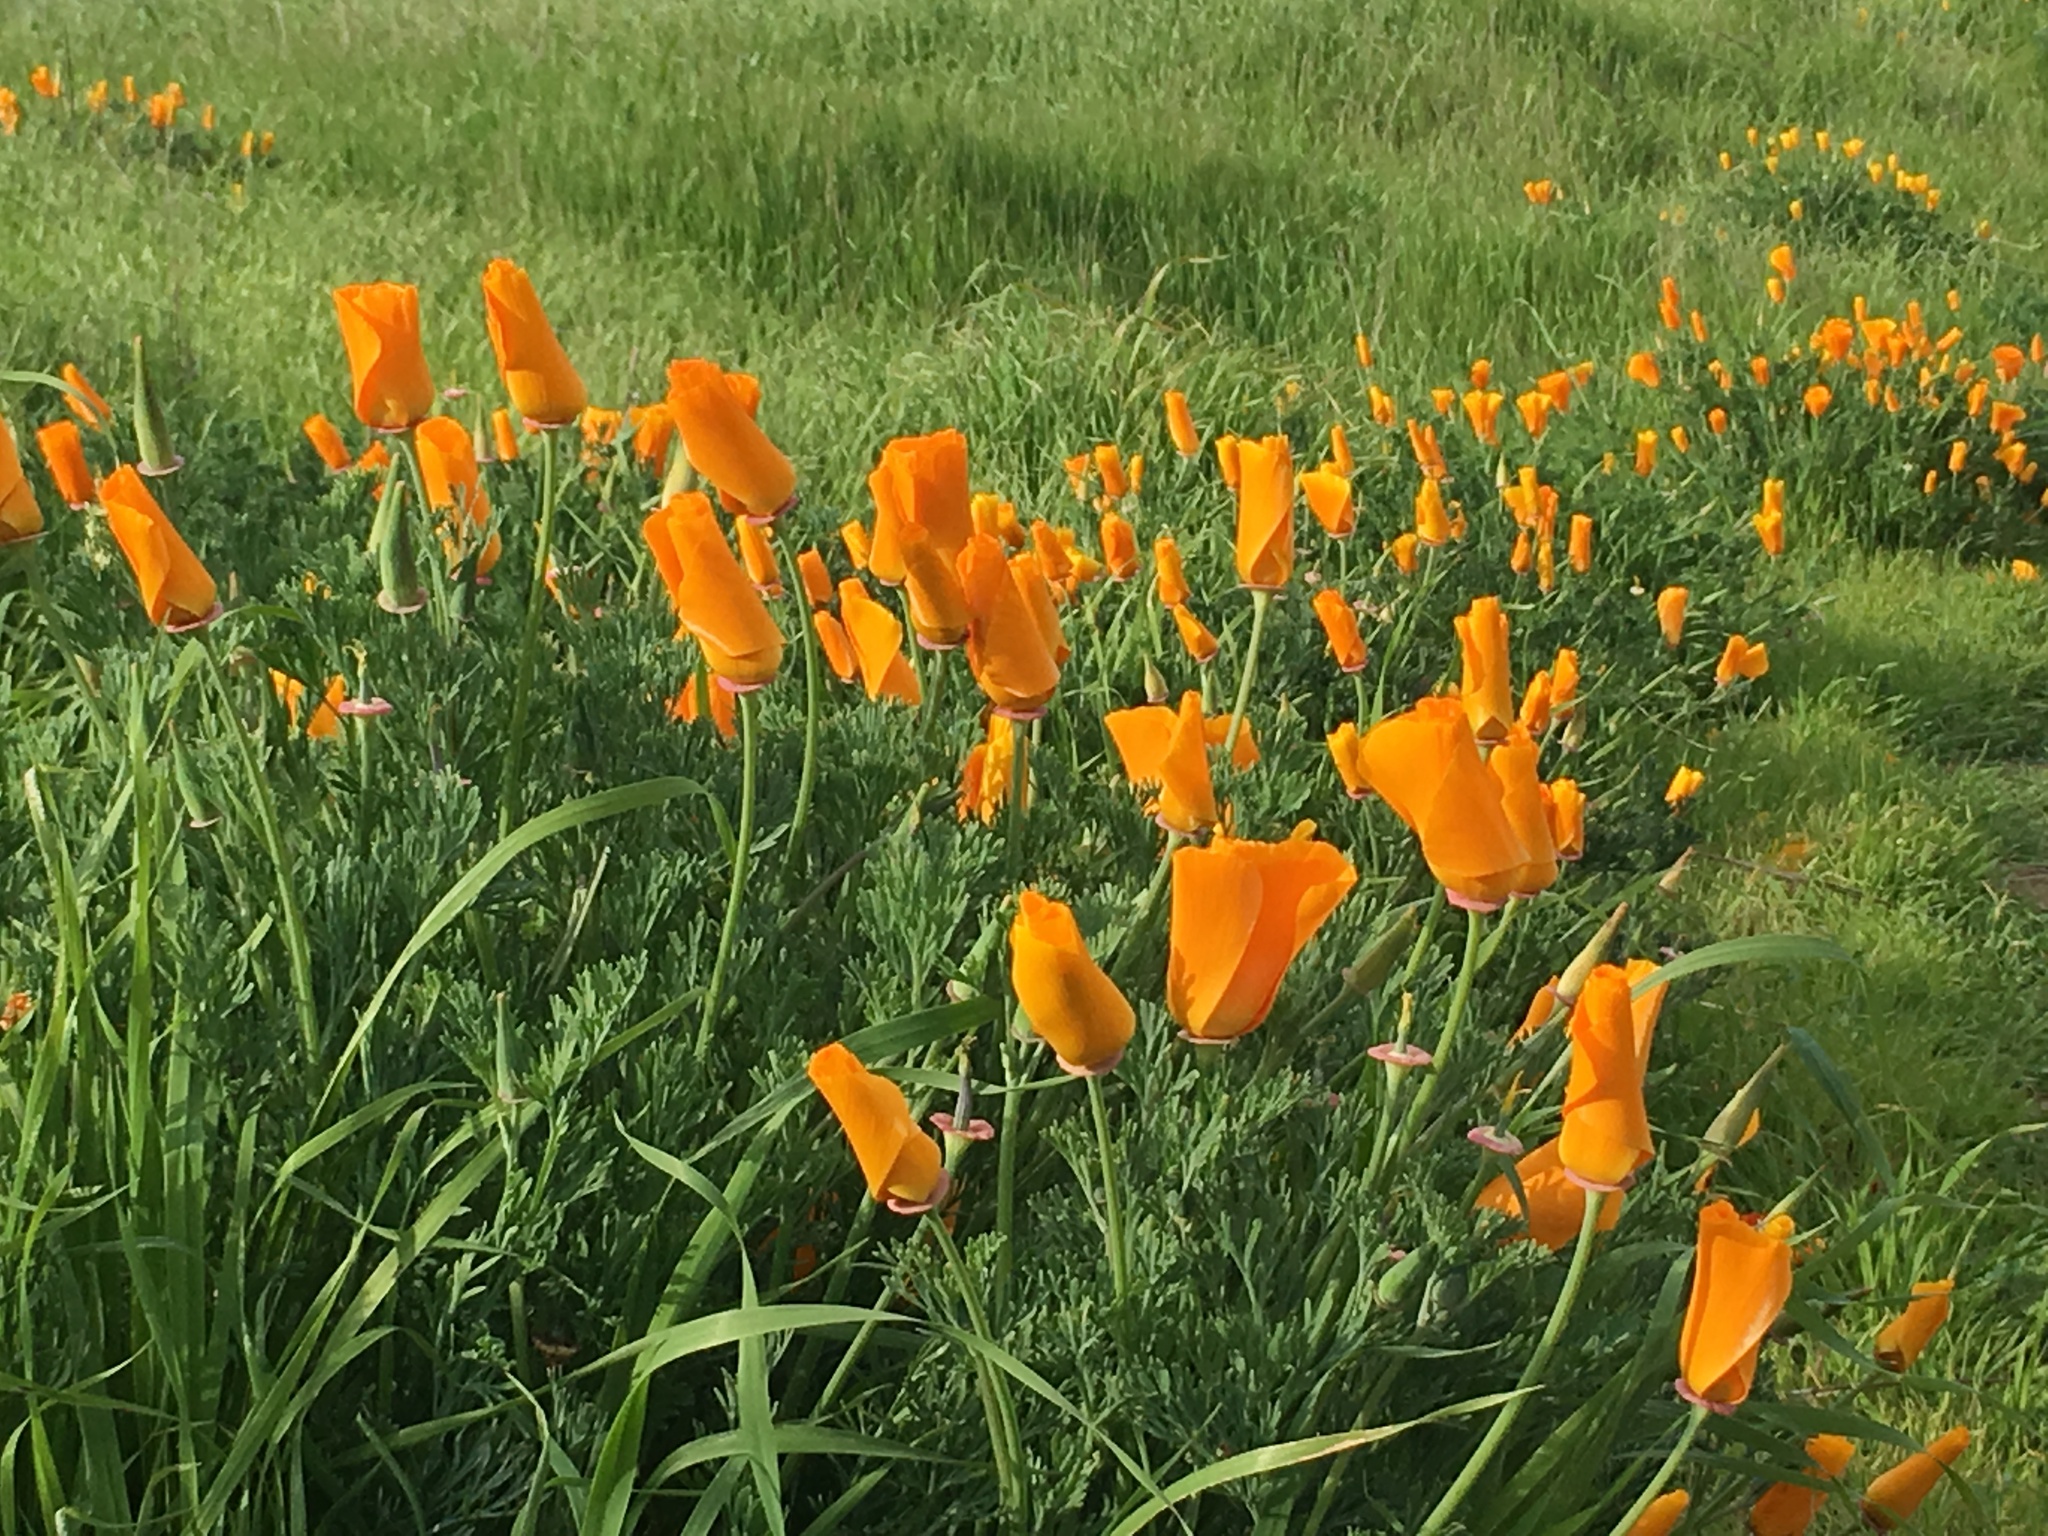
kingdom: Plantae
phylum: Tracheophyta
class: Magnoliopsida
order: Ranunculales
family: Papaveraceae
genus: Eschscholzia
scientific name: Eschscholzia californica
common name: California poppy
